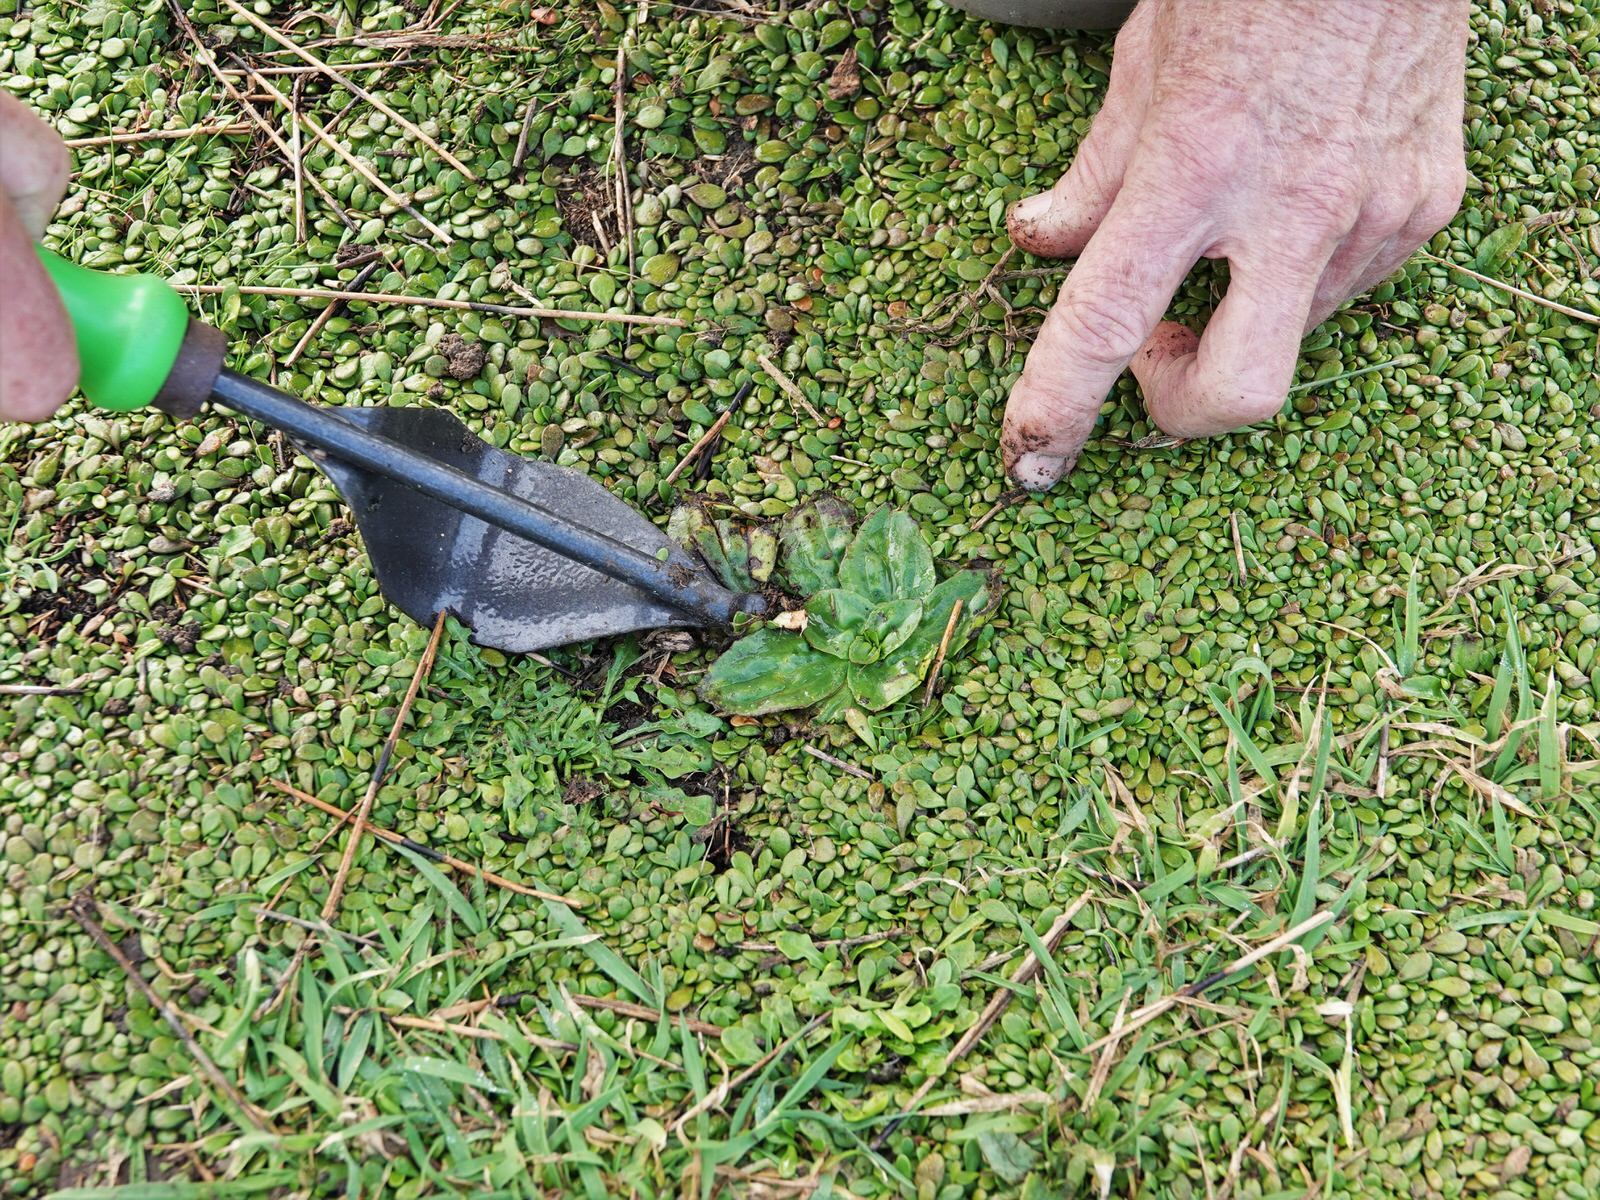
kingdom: Plantae
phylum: Tracheophyta
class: Magnoliopsida
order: Asterales
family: Goodeniaceae
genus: Goodenia
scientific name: Goodenia radicans
